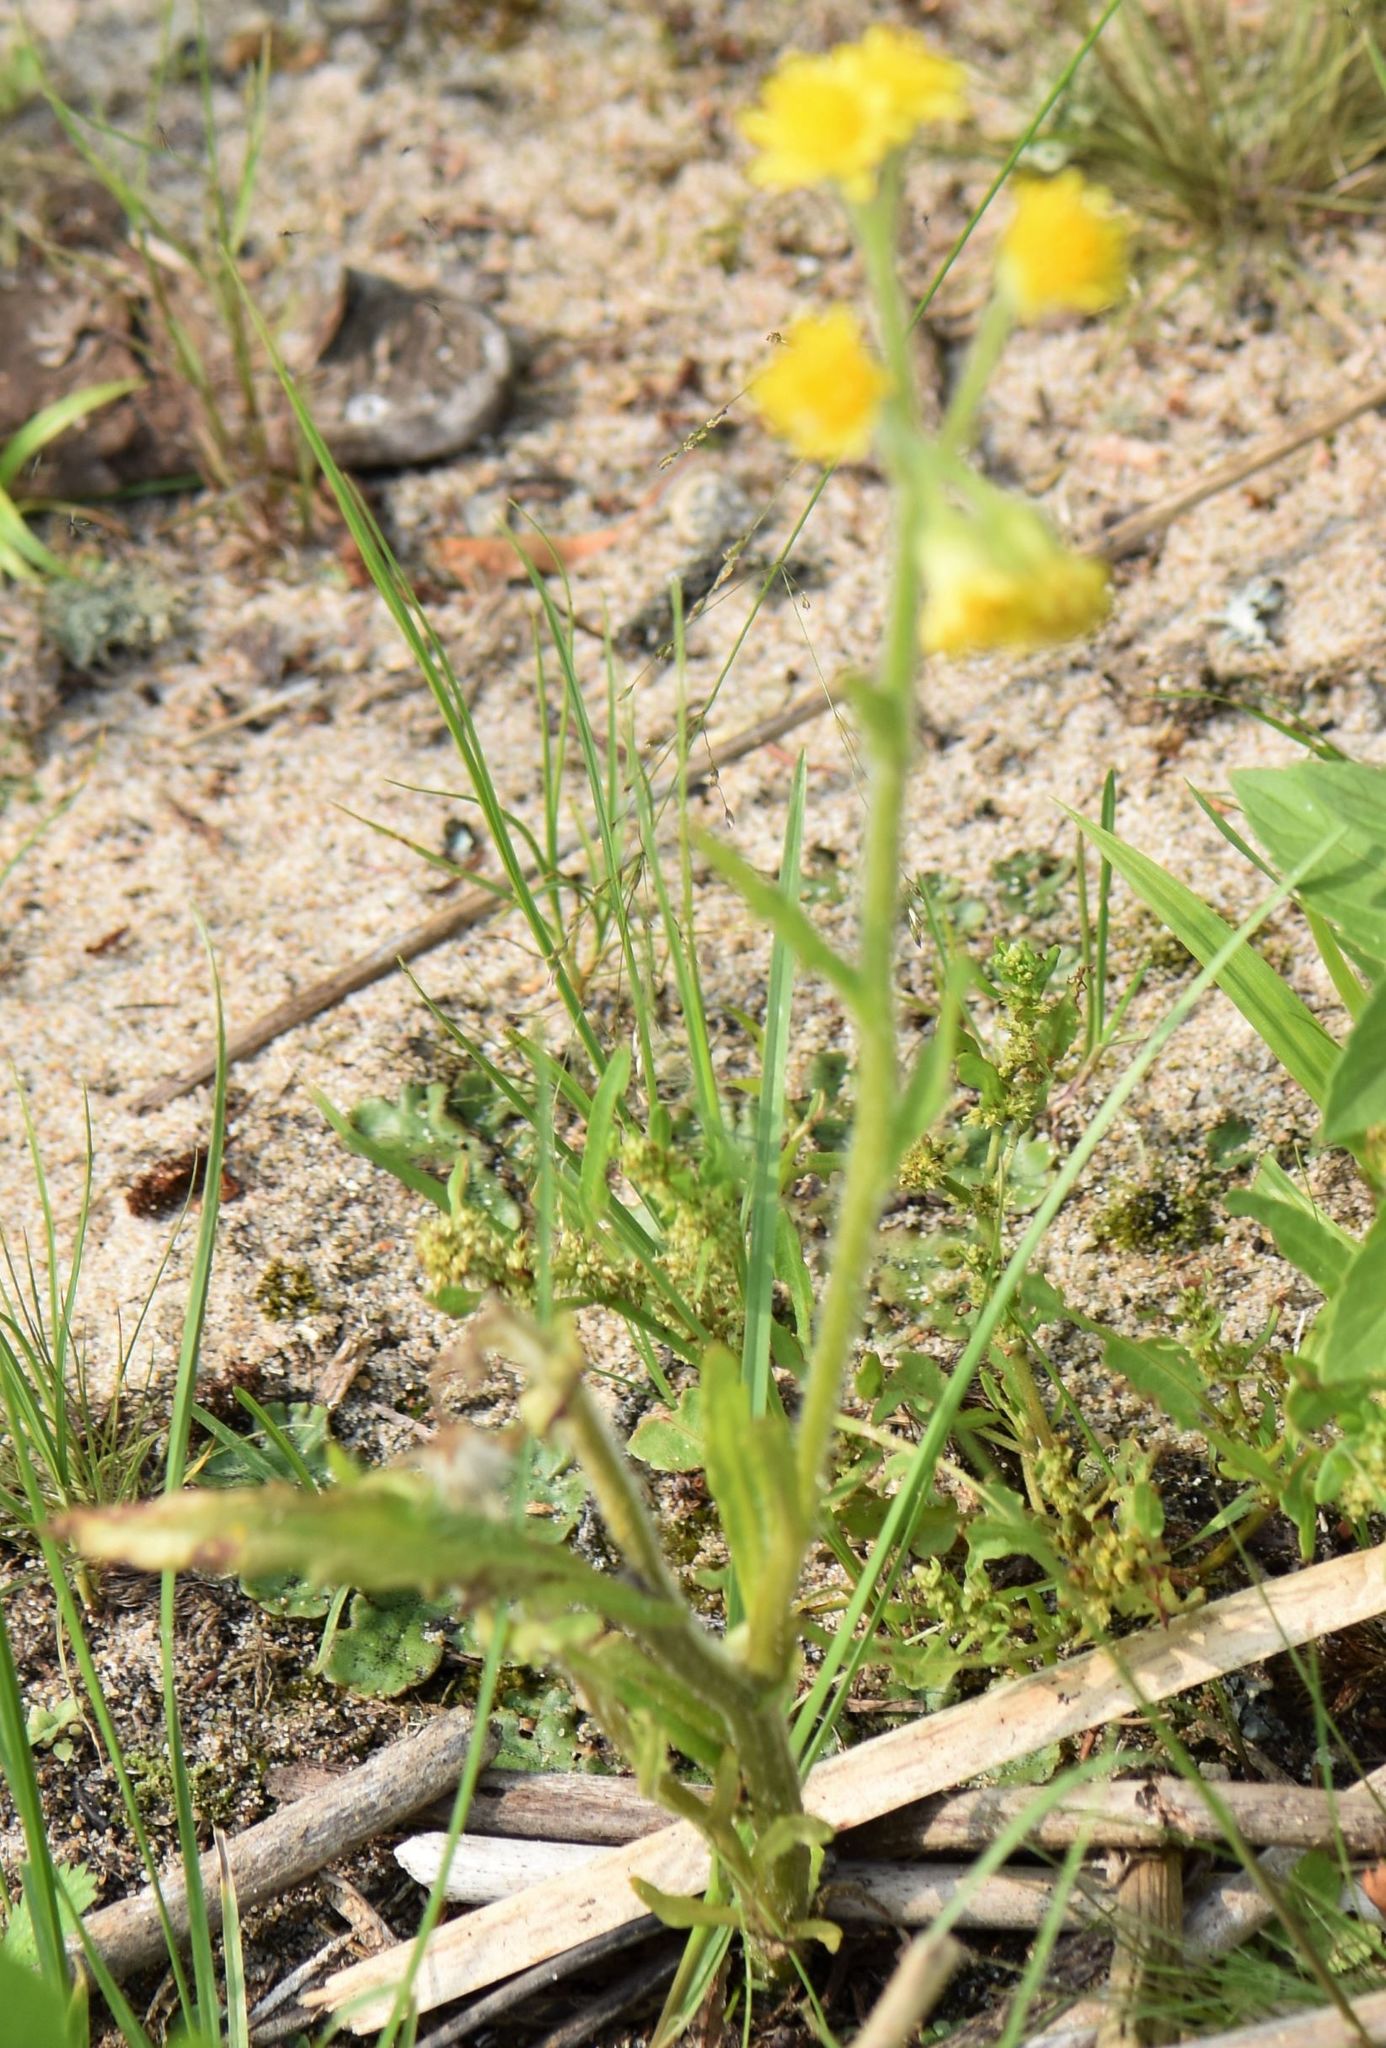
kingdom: Plantae
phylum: Tracheophyta
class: Magnoliopsida
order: Asterales
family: Asteraceae
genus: Tephroseris
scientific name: Tephroseris palustris
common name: Marsh fleawort
